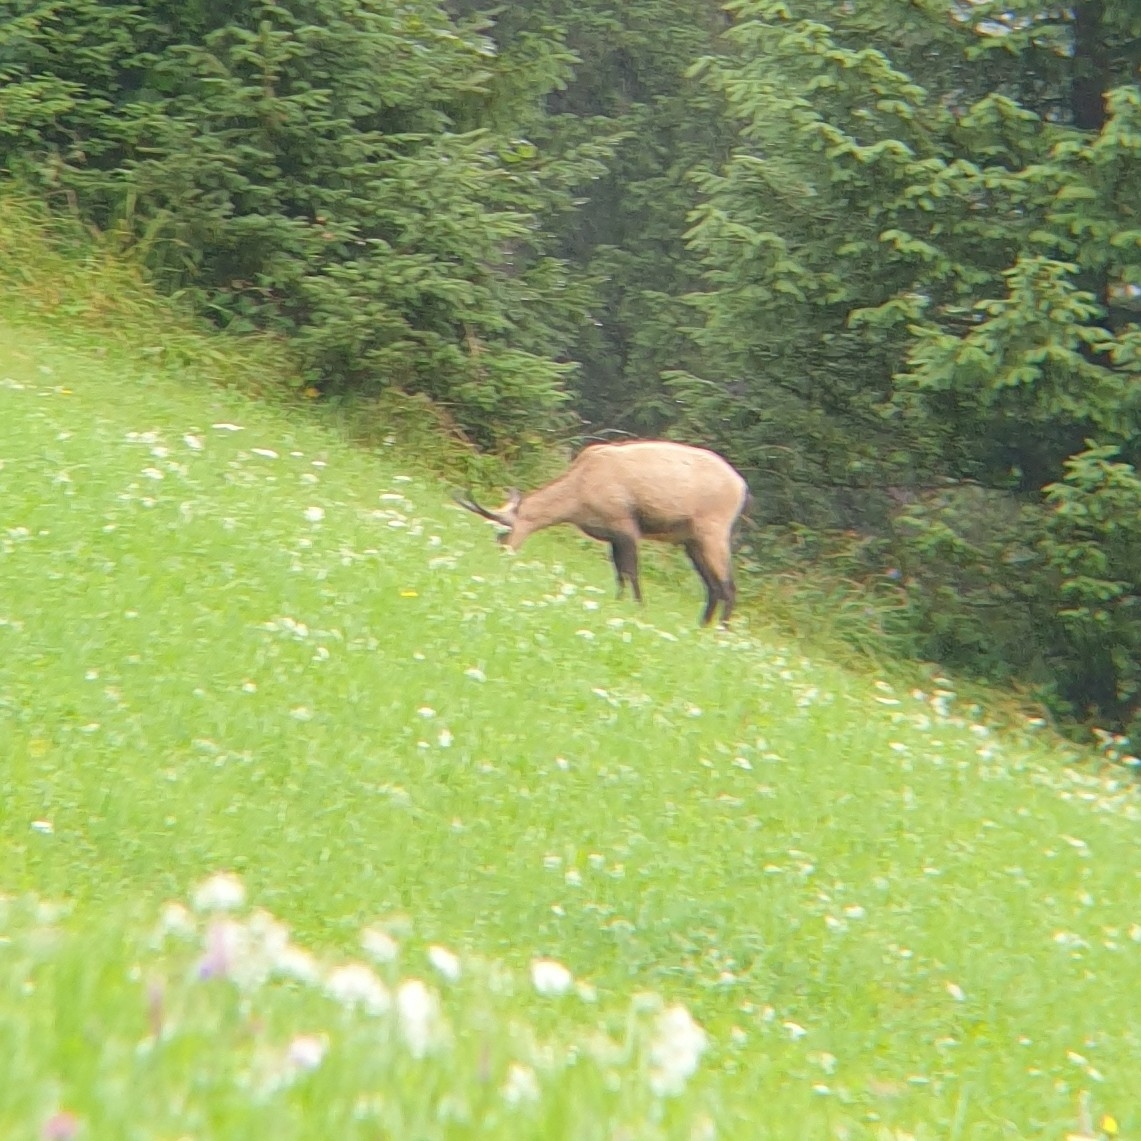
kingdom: Animalia
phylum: Chordata
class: Mammalia
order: Artiodactyla
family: Bovidae
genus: Rupicapra
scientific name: Rupicapra rupicapra
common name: Chamois
